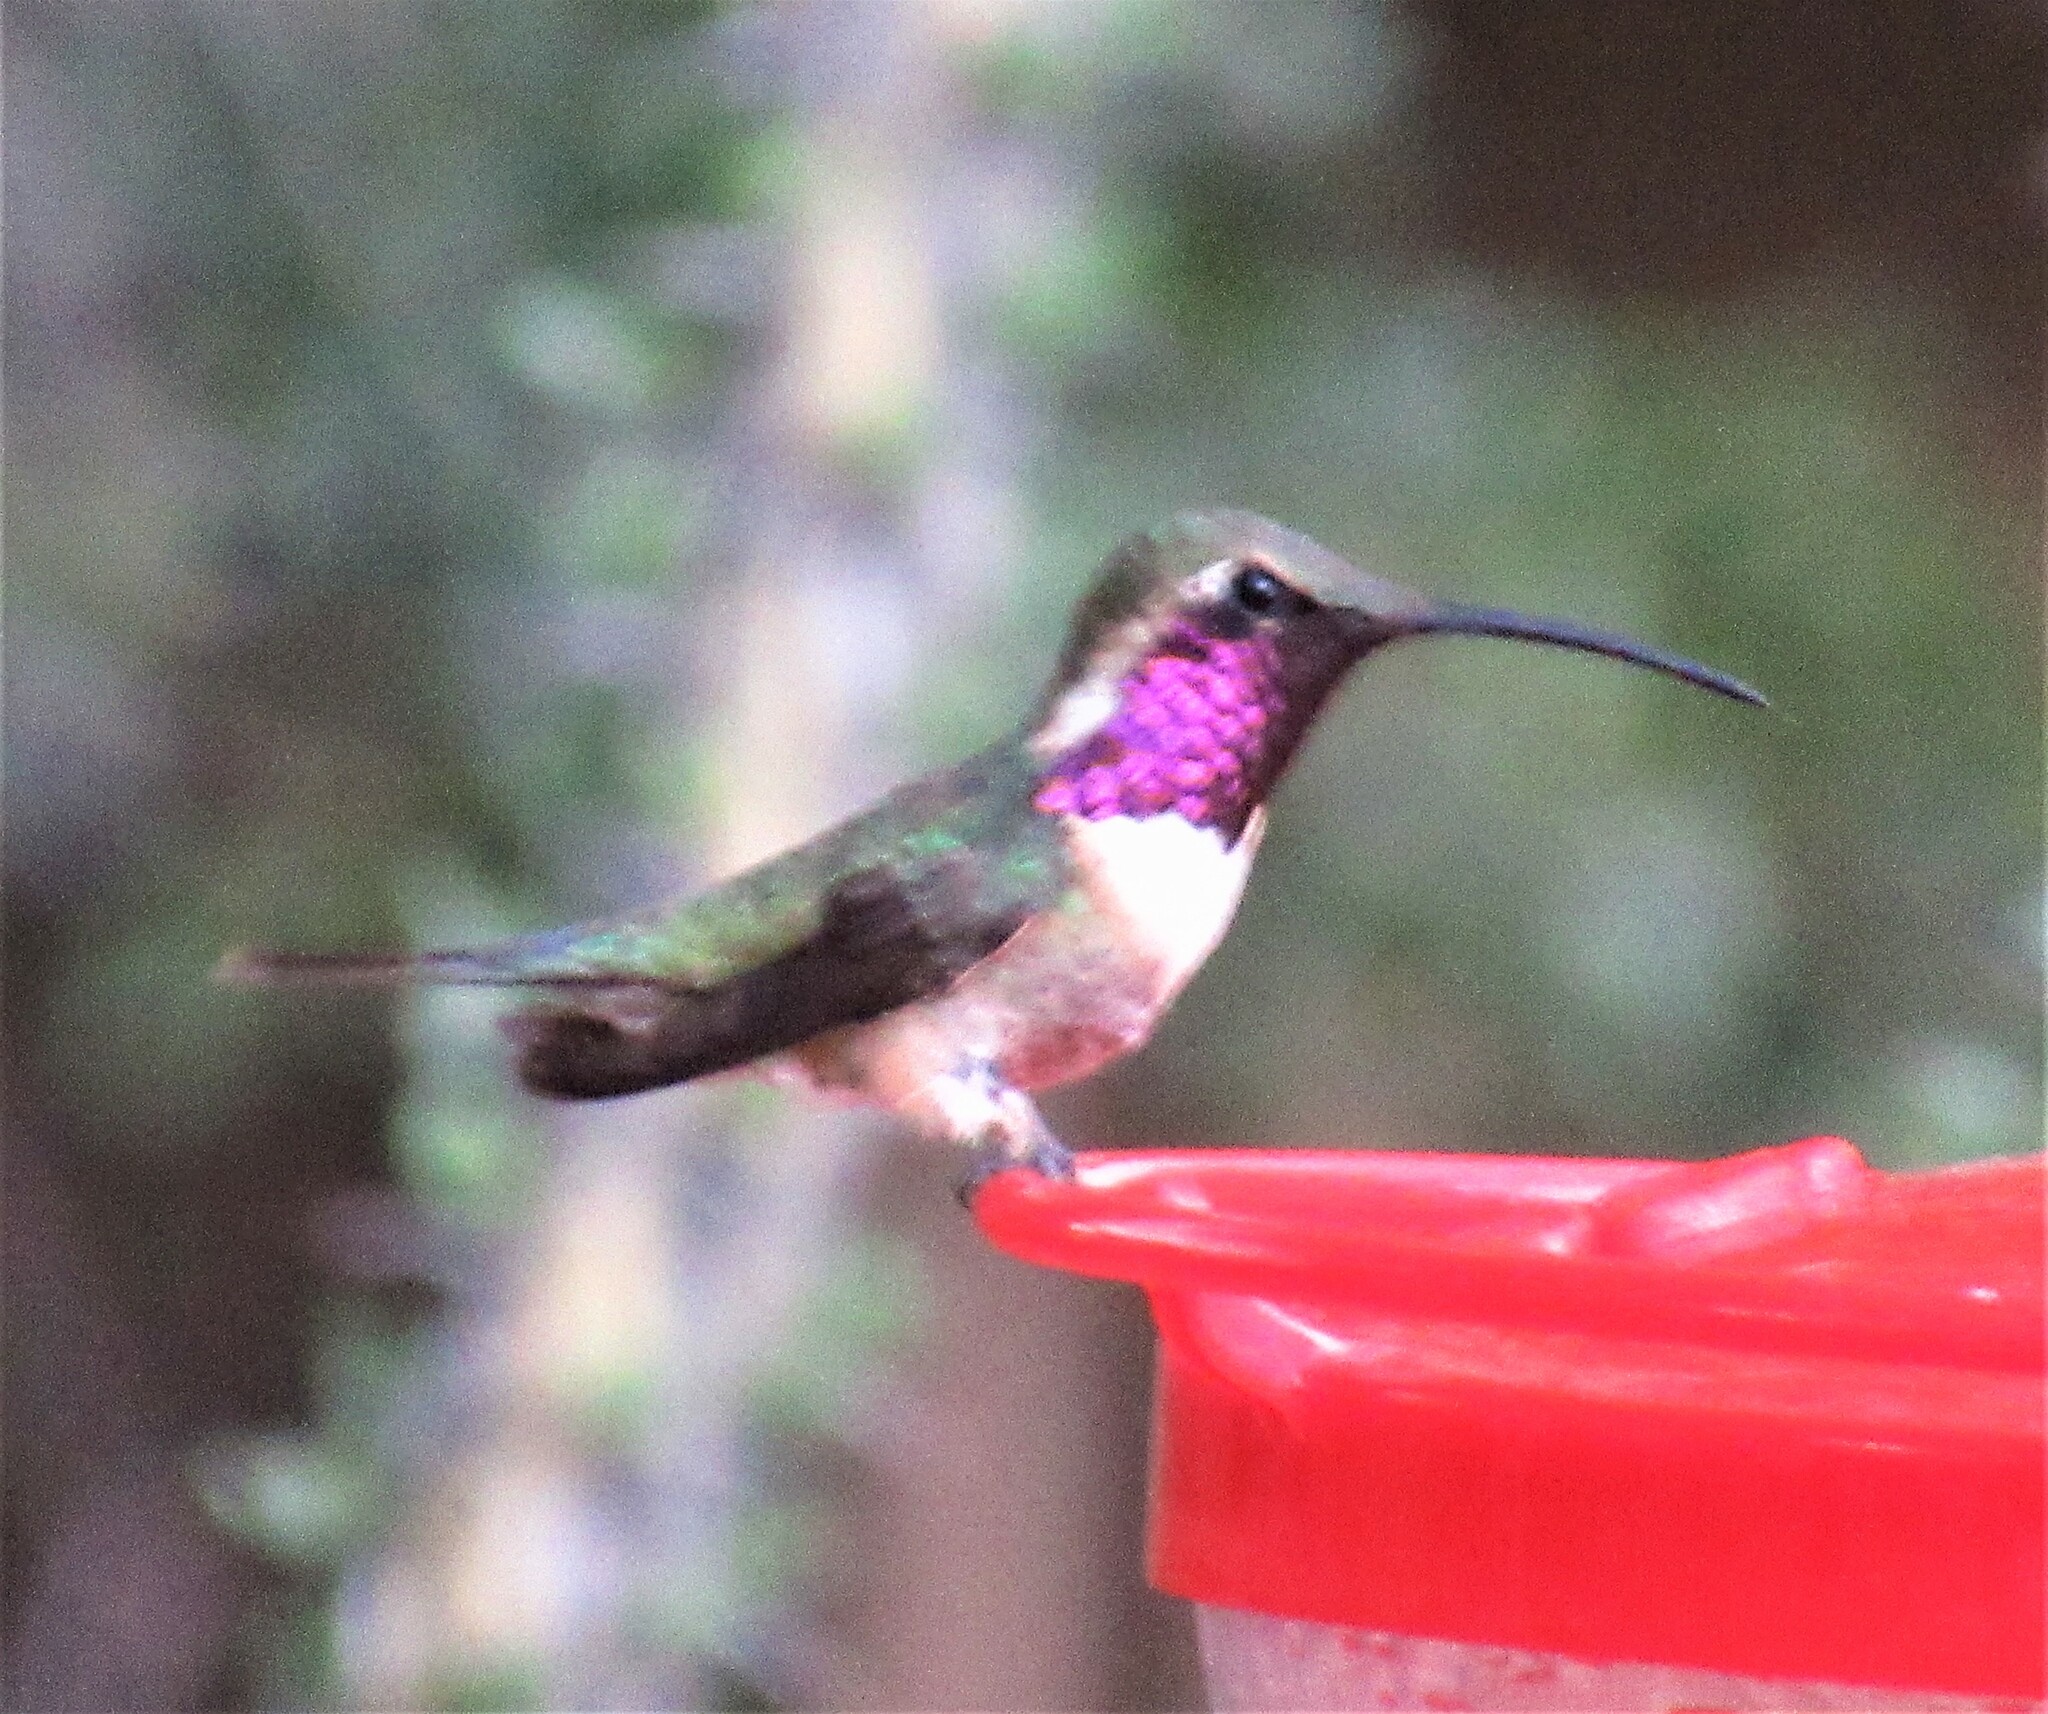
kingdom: Animalia
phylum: Chordata
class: Aves
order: Apodiformes
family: Trochilidae
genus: Calothorax
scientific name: Calothorax lucifer
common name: Lucifer sheartail
